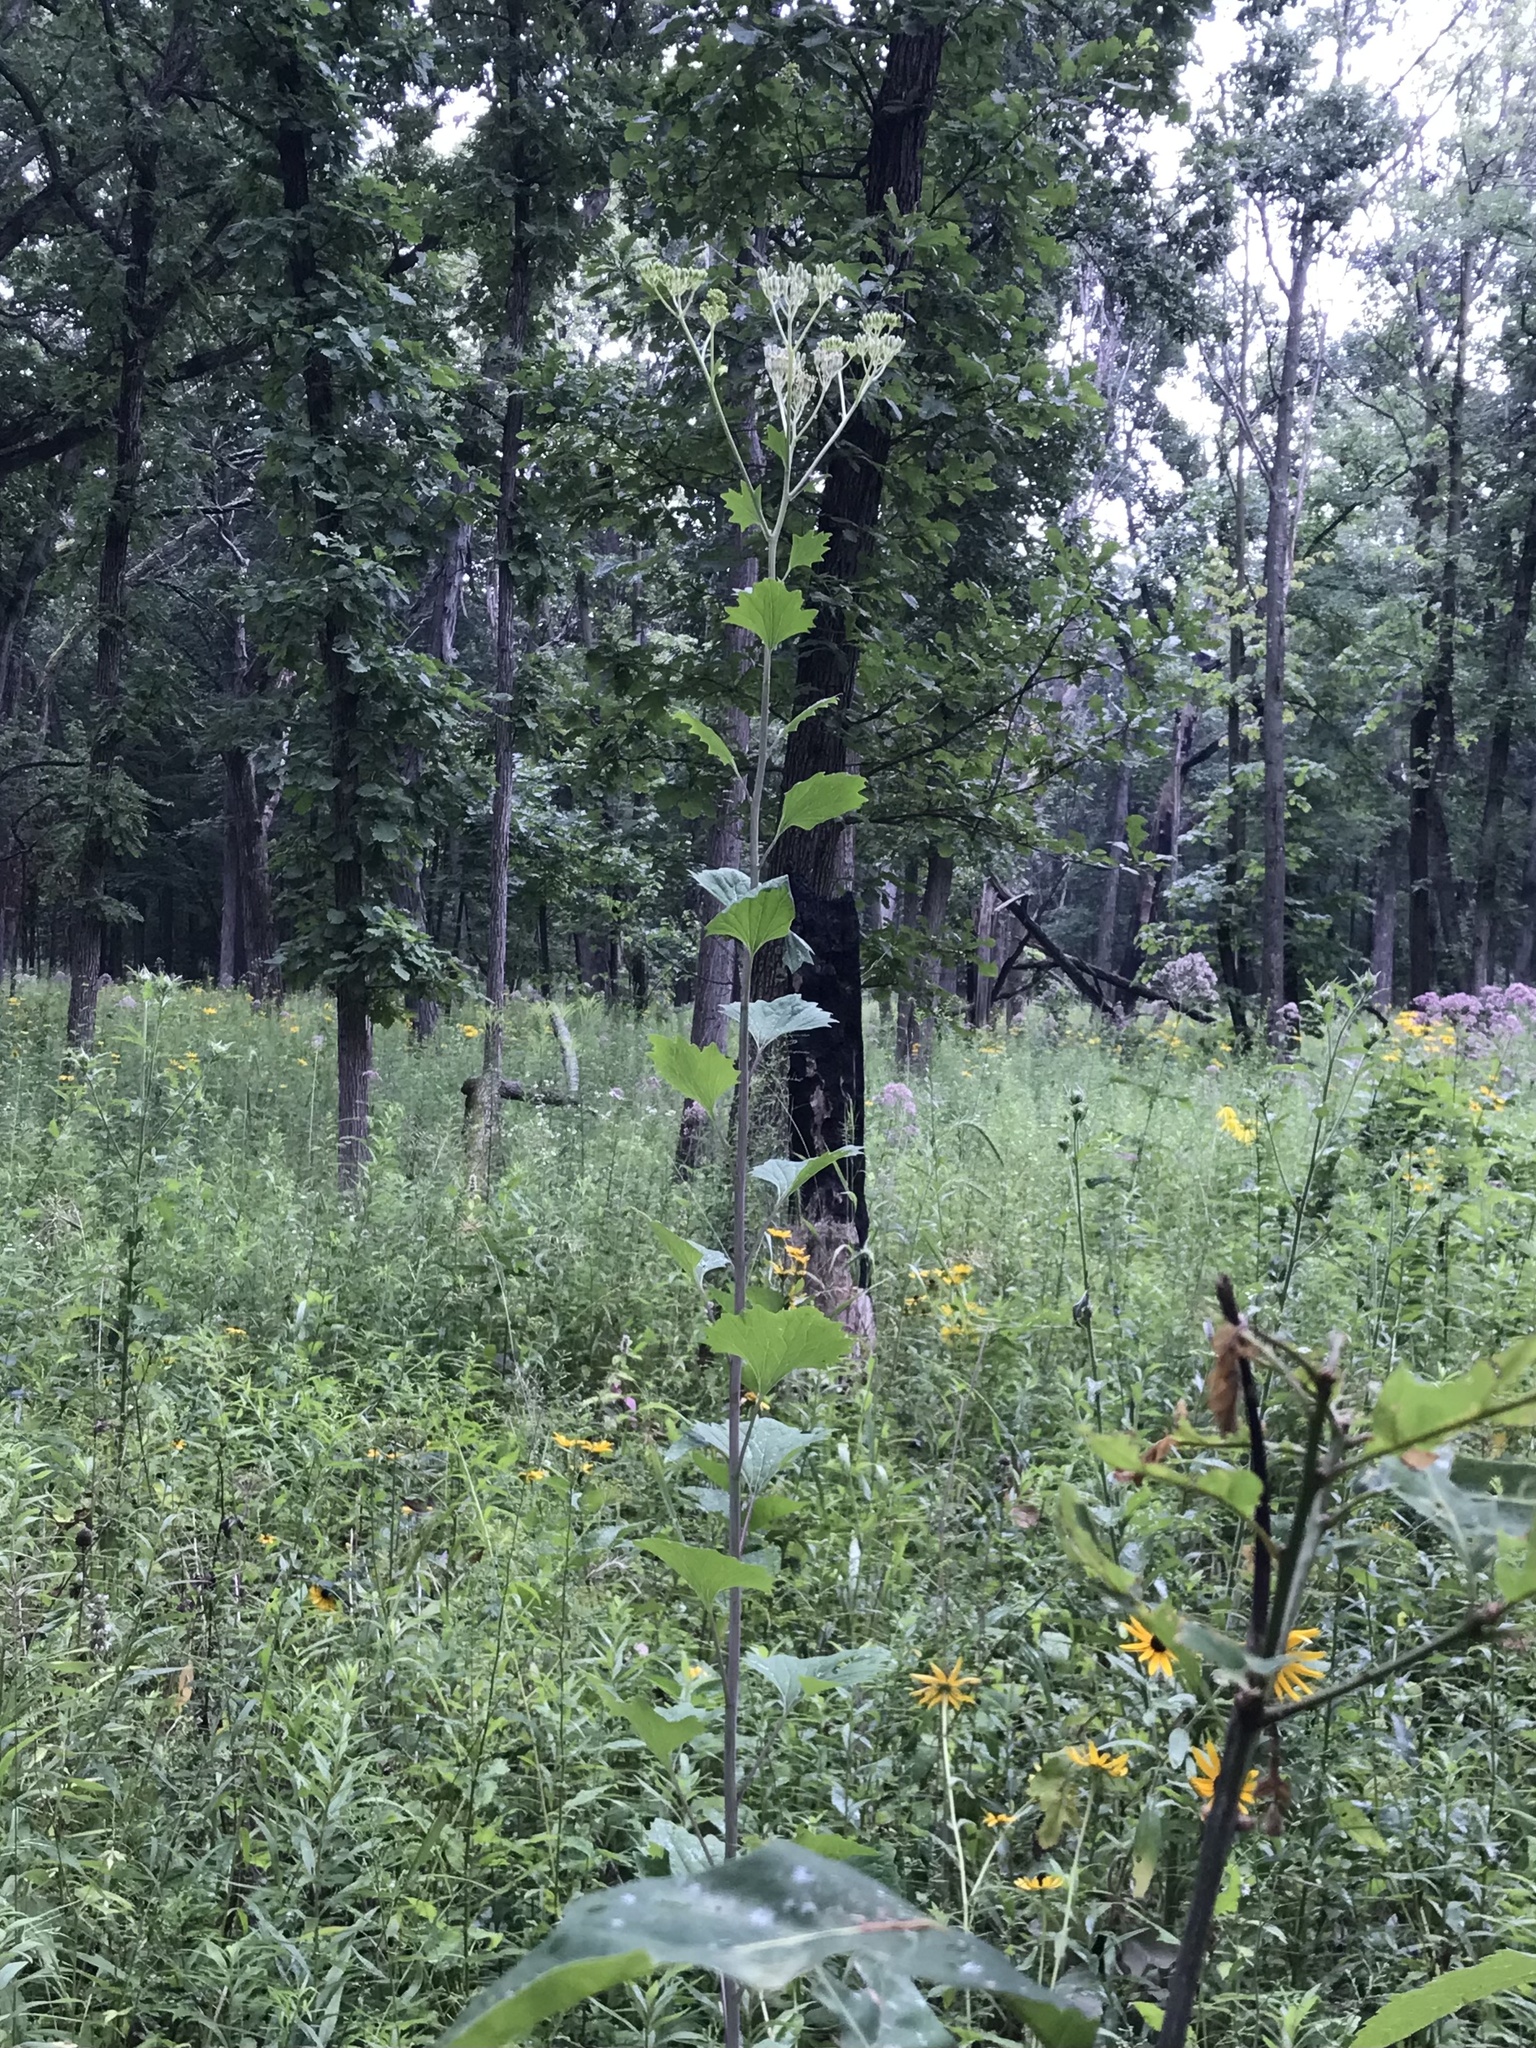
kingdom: Plantae
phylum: Tracheophyta
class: Magnoliopsida
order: Asterales
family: Asteraceae
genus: Arnoglossum
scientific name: Arnoglossum atriplicifolium
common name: Pale indian-plantain
